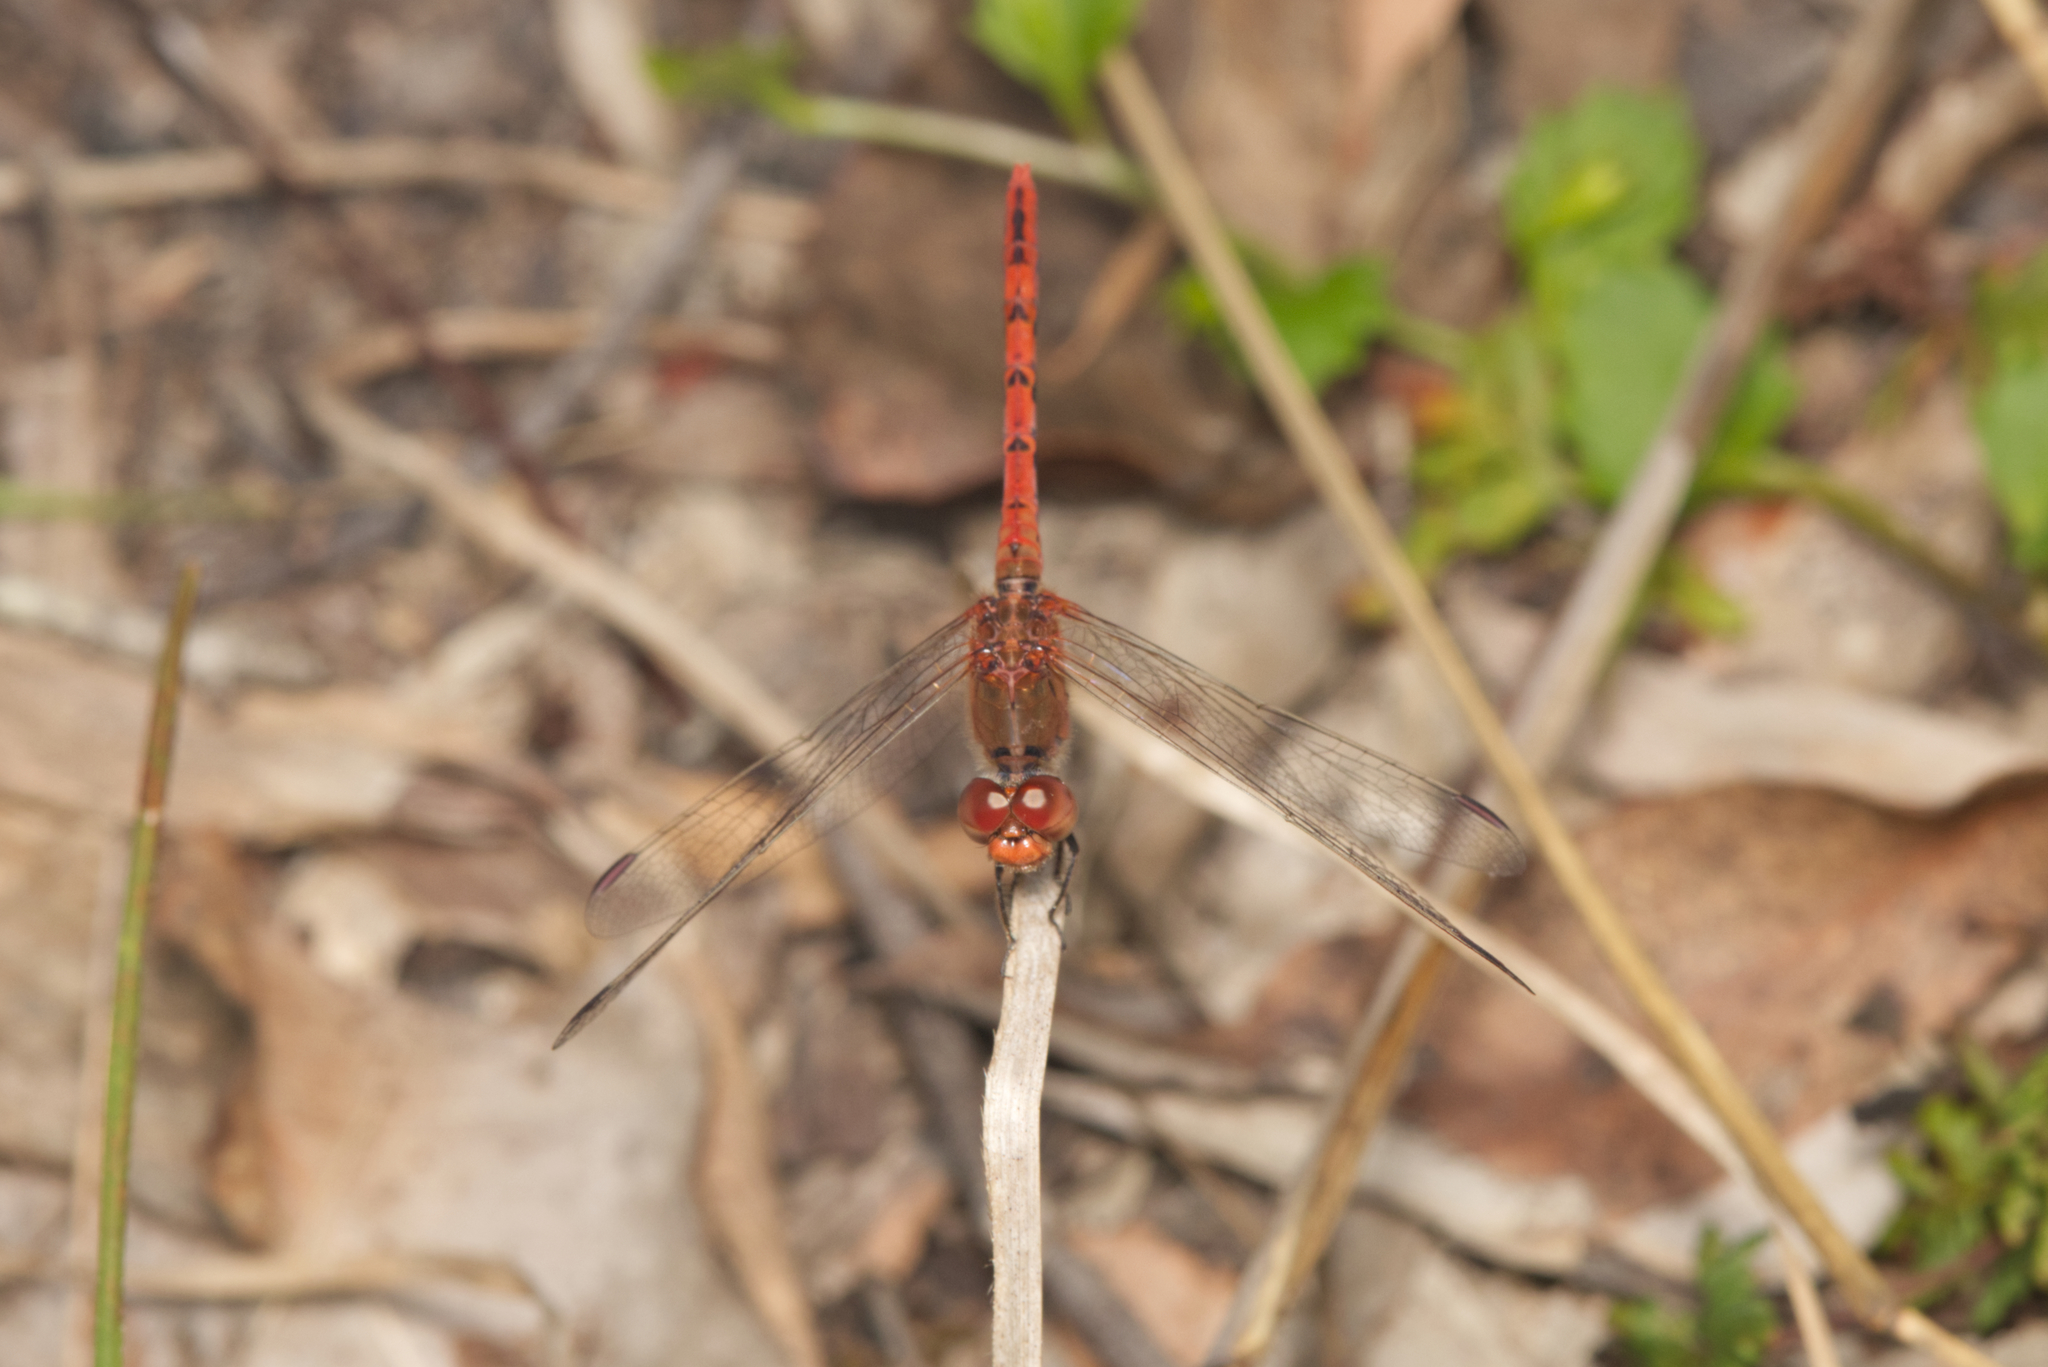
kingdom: Animalia
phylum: Arthropoda
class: Insecta
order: Odonata
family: Libellulidae
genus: Diplacodes
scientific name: Diplacodes bipunctata
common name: Red percher dragonfly
